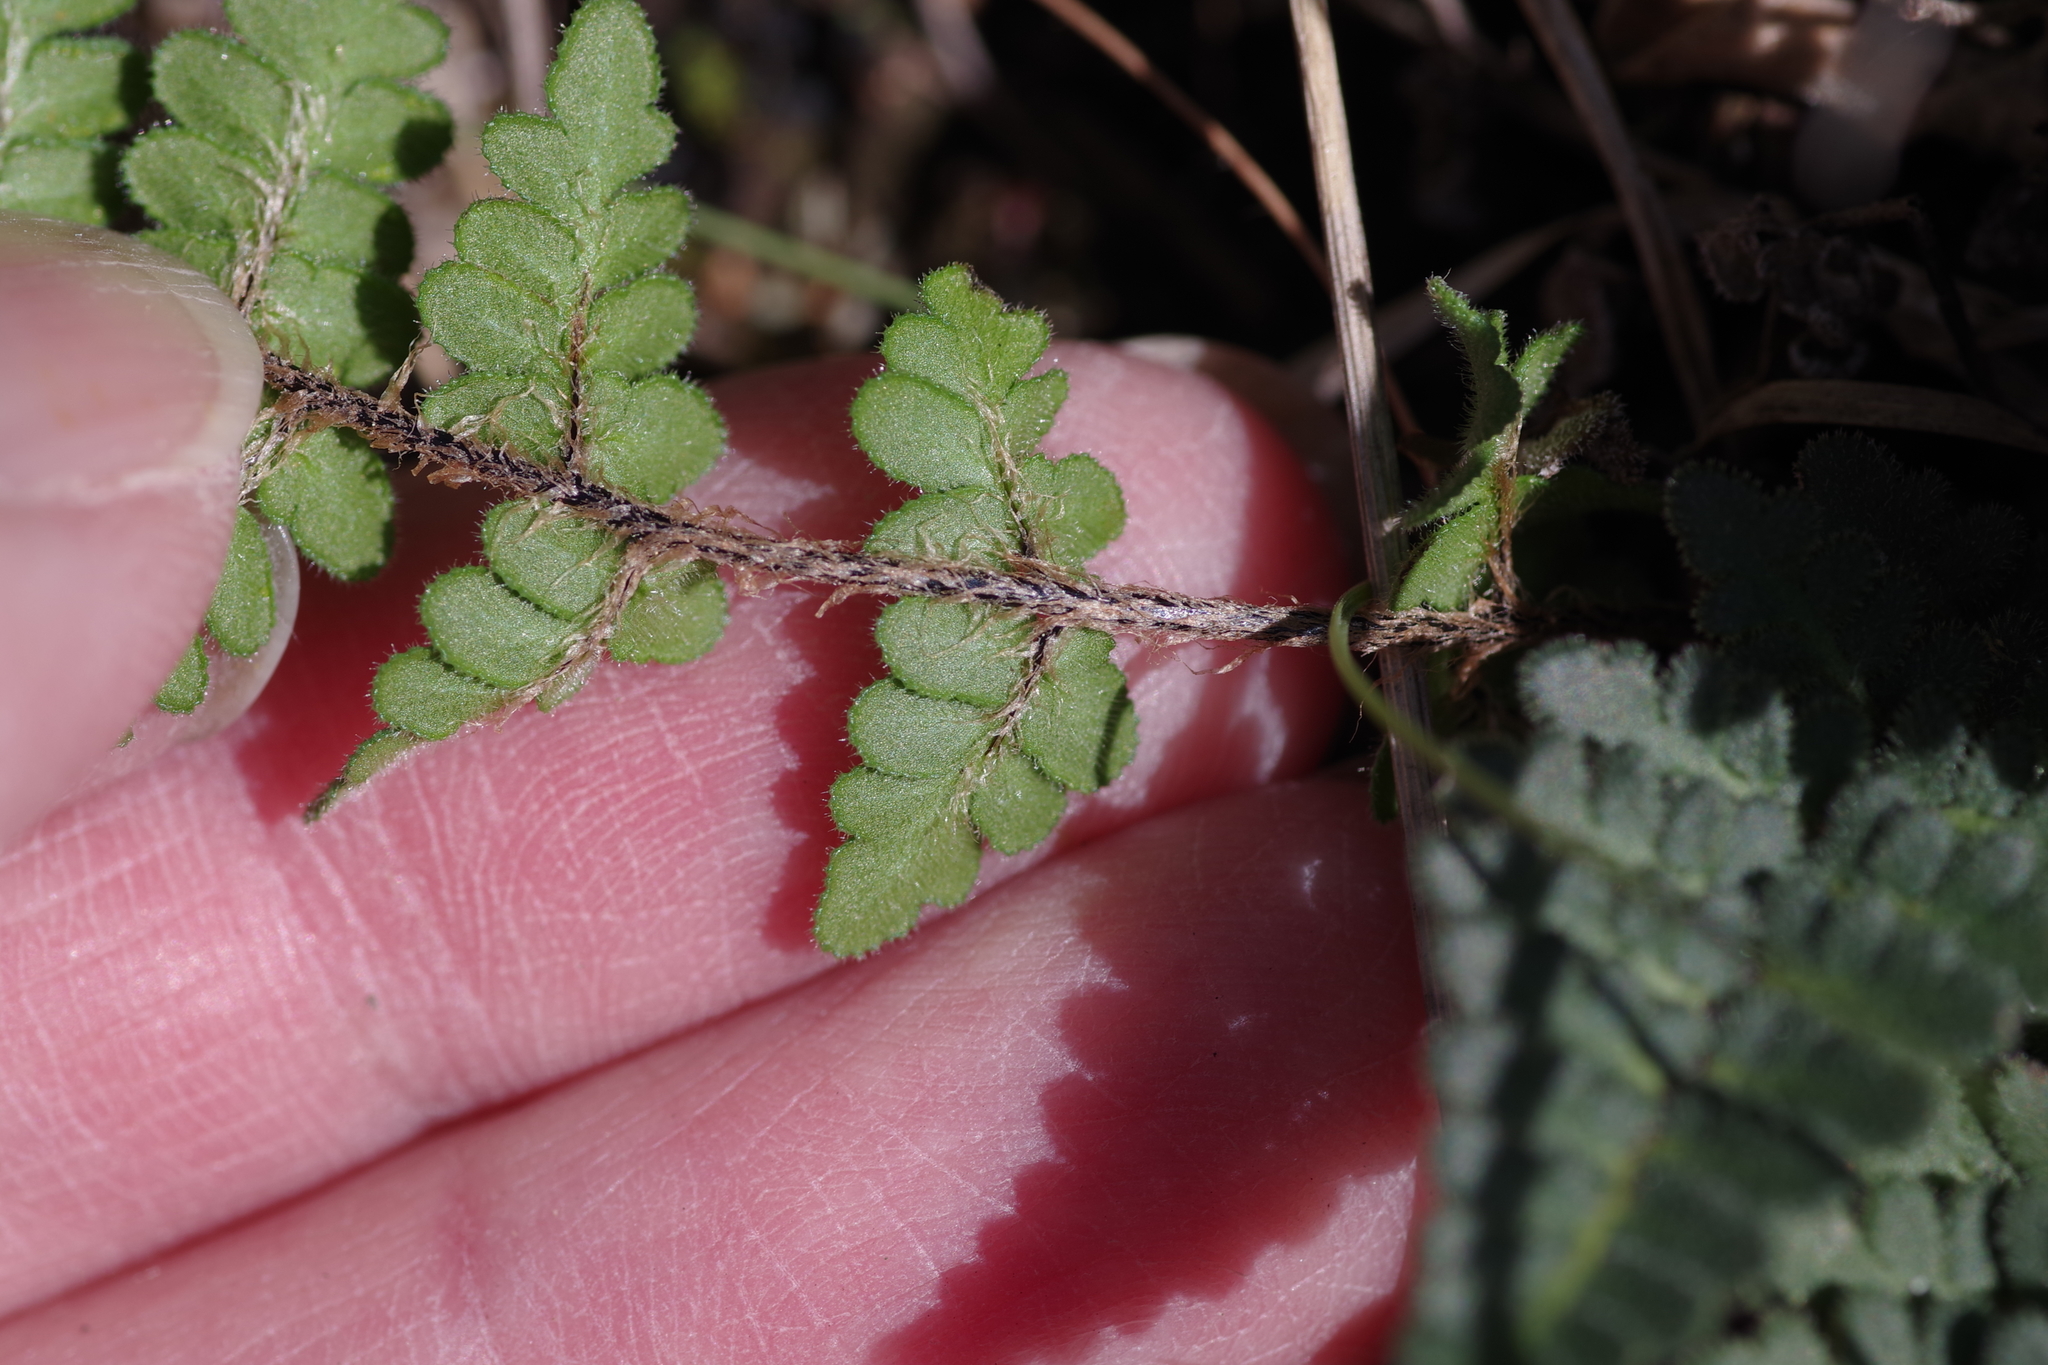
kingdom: Plantae
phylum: Tracheophyta
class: Polypodiopsida
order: Polypodiales
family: Pteridaceae
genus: Myriopteris
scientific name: Myriopteris scabra
